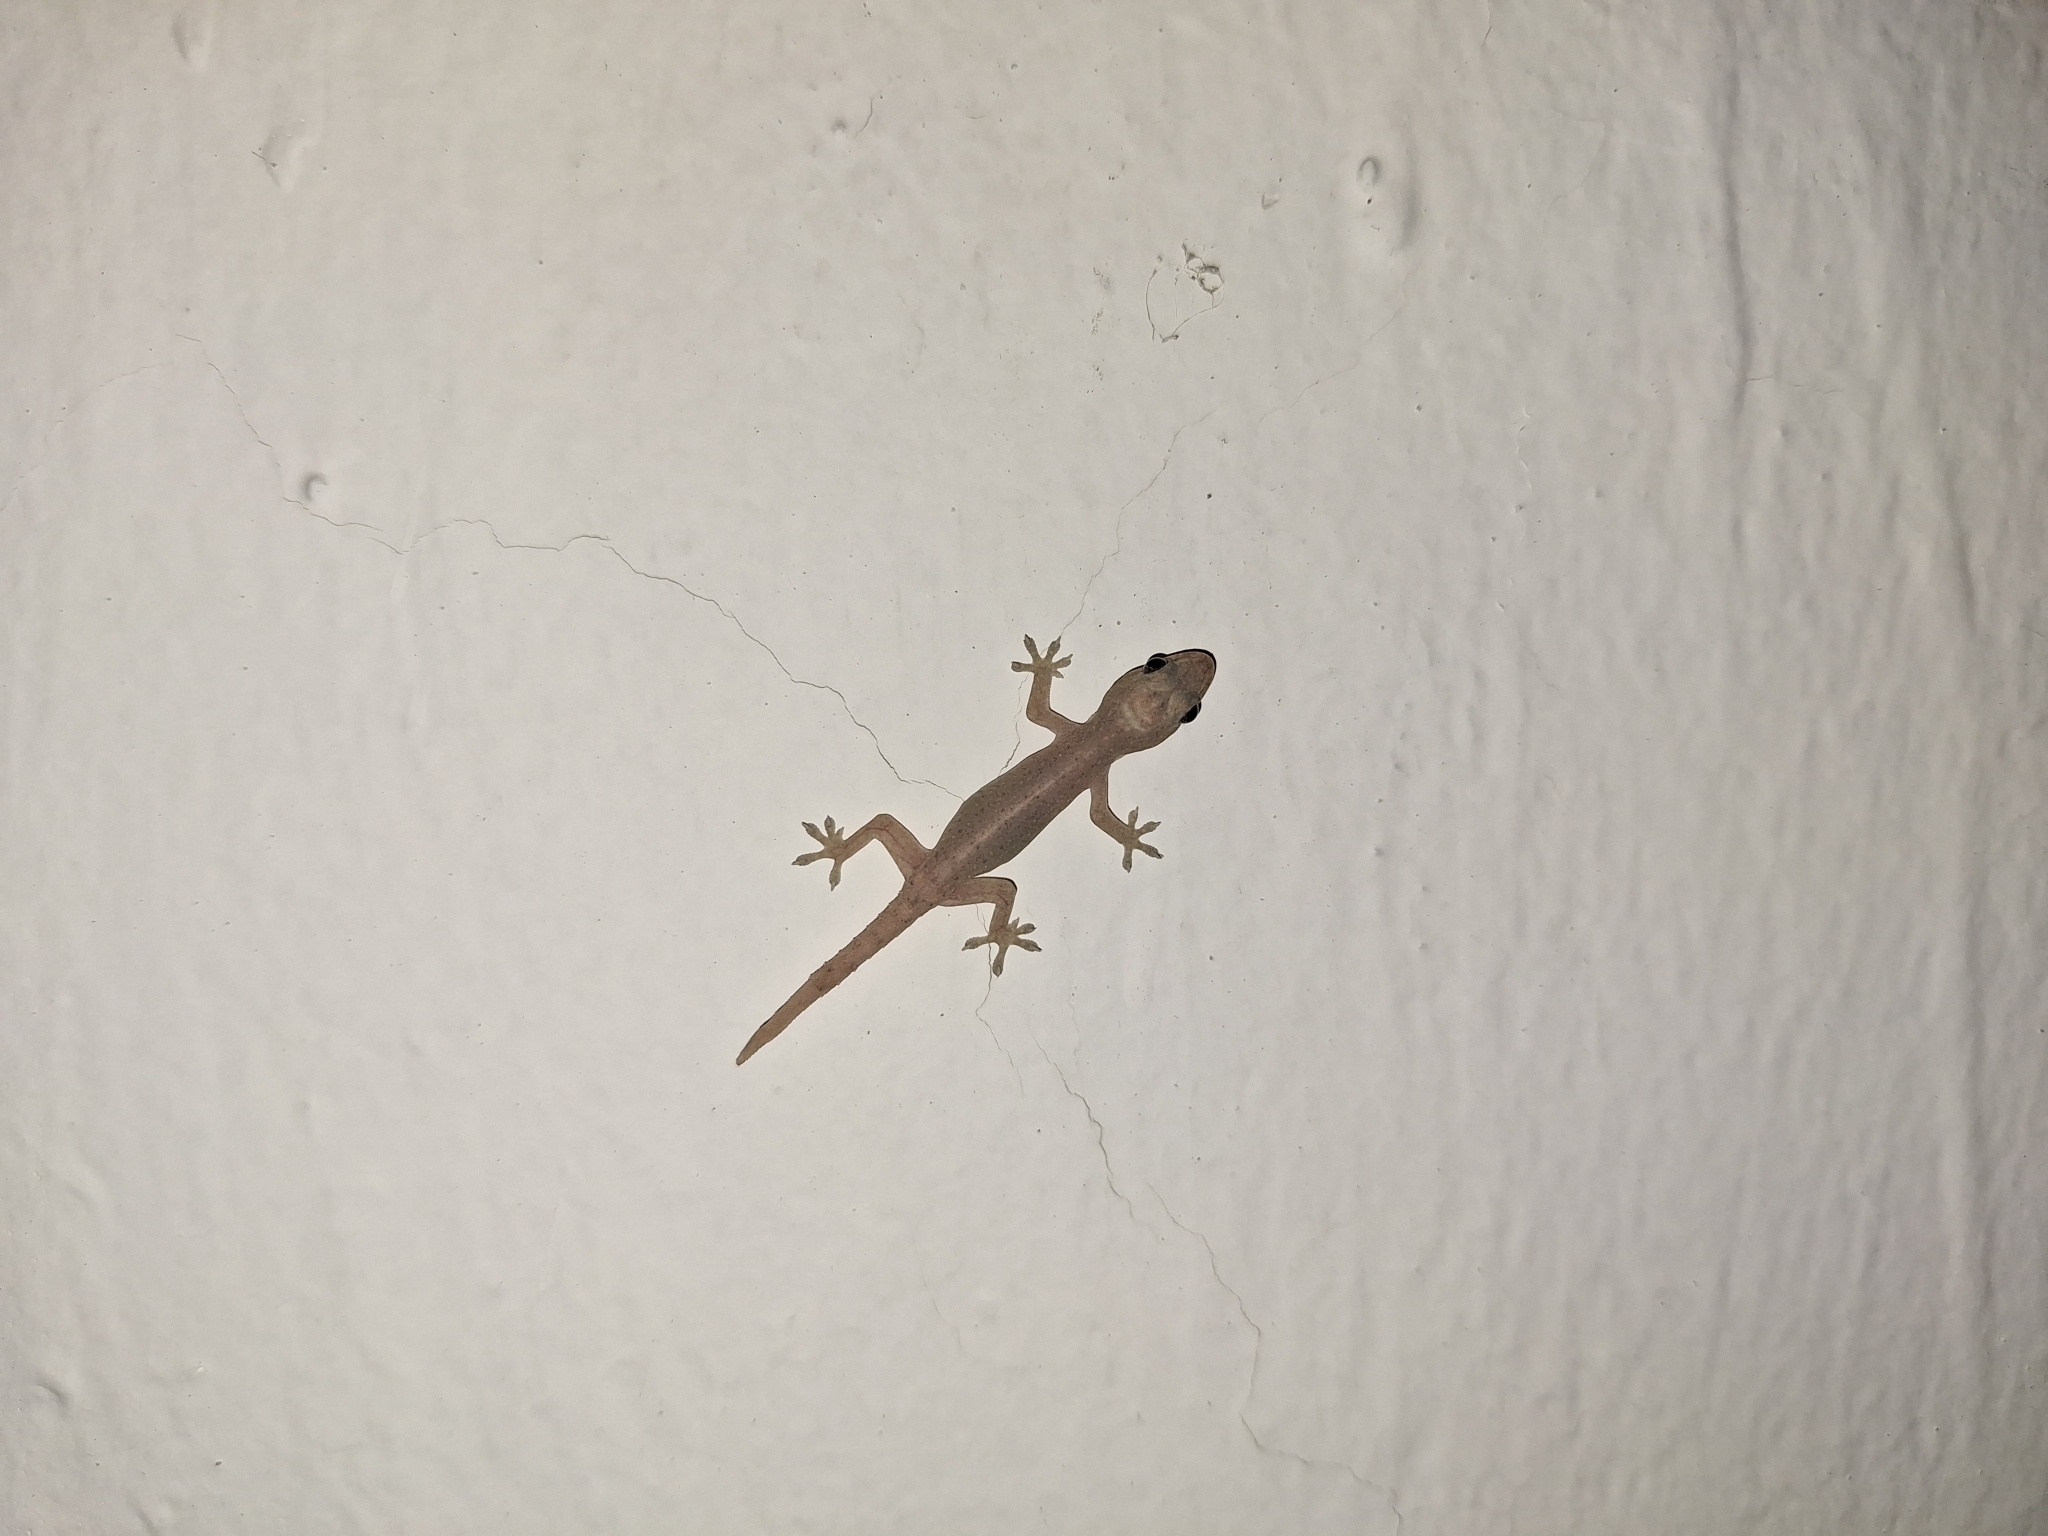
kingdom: Animalia
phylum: Chordata
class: Squamata
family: Gekkonidae
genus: Hemidactylus
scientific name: Hemidactylus frenatus
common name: Common house gecko
